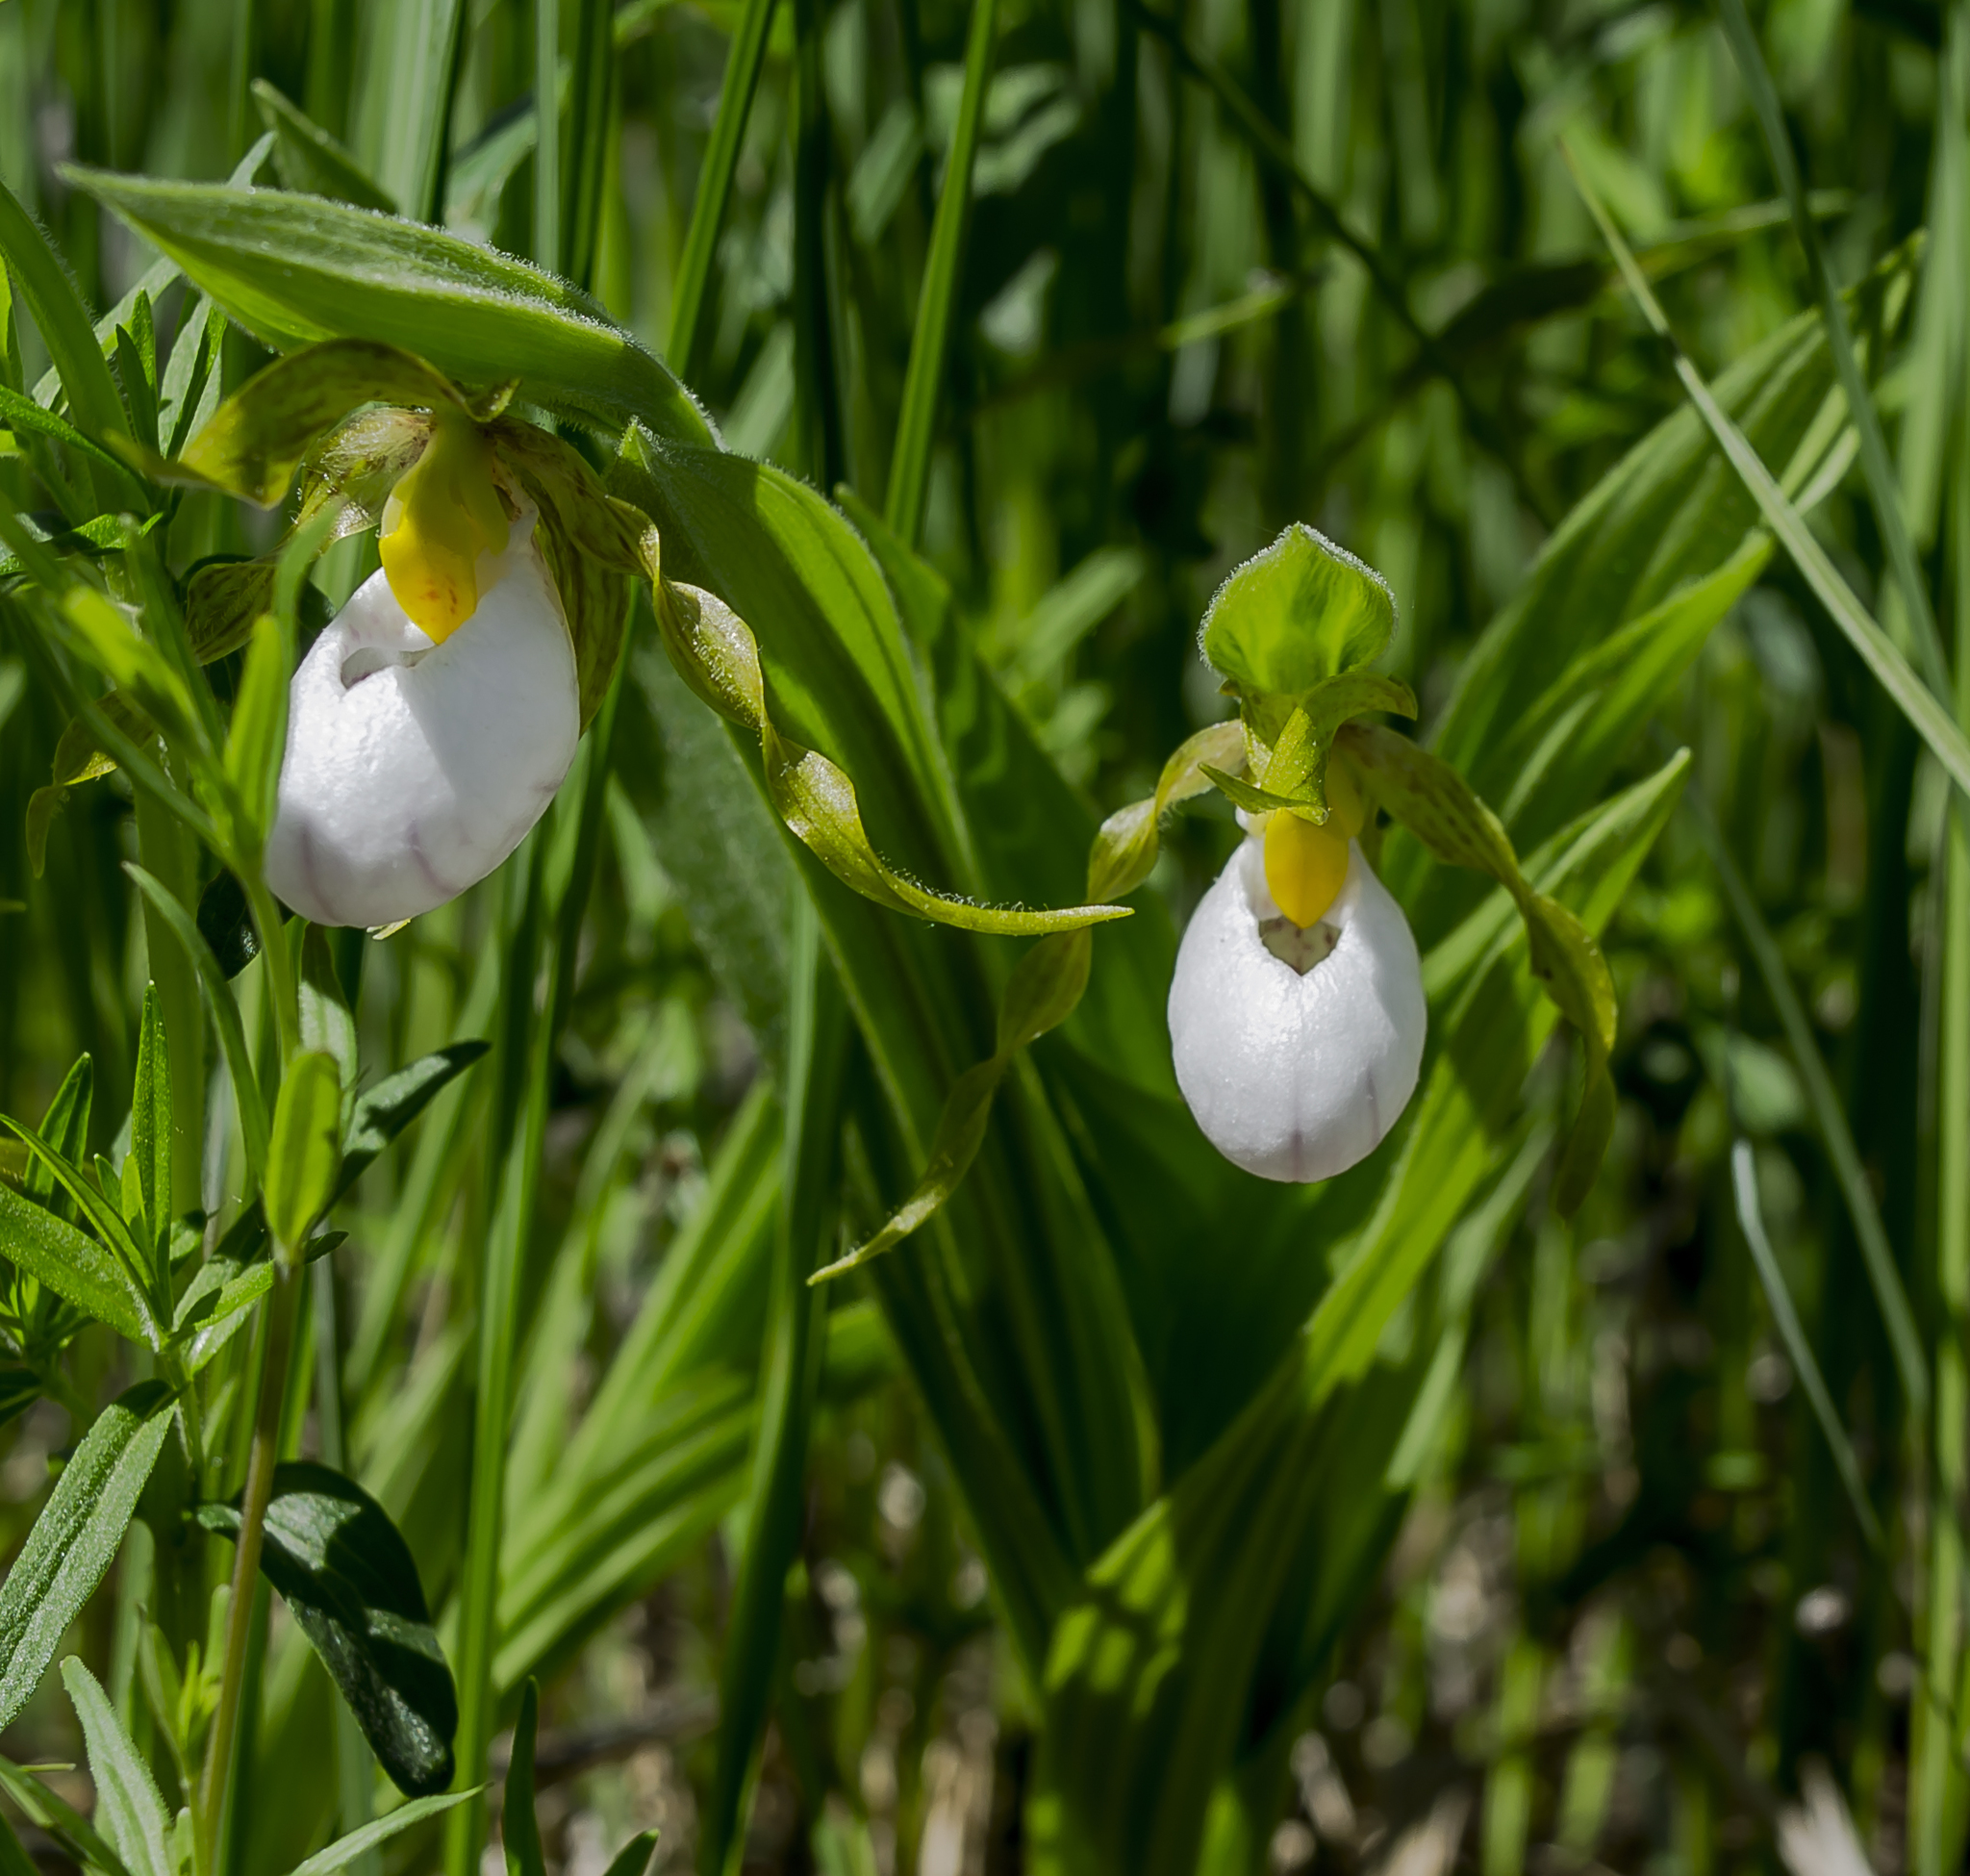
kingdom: Plantae
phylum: Tracheophyta
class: Liliopsida
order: Asparagales
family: Orchidaceae
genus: Cypripedium
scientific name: Cypripedium candidum
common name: White lady's-slipper
